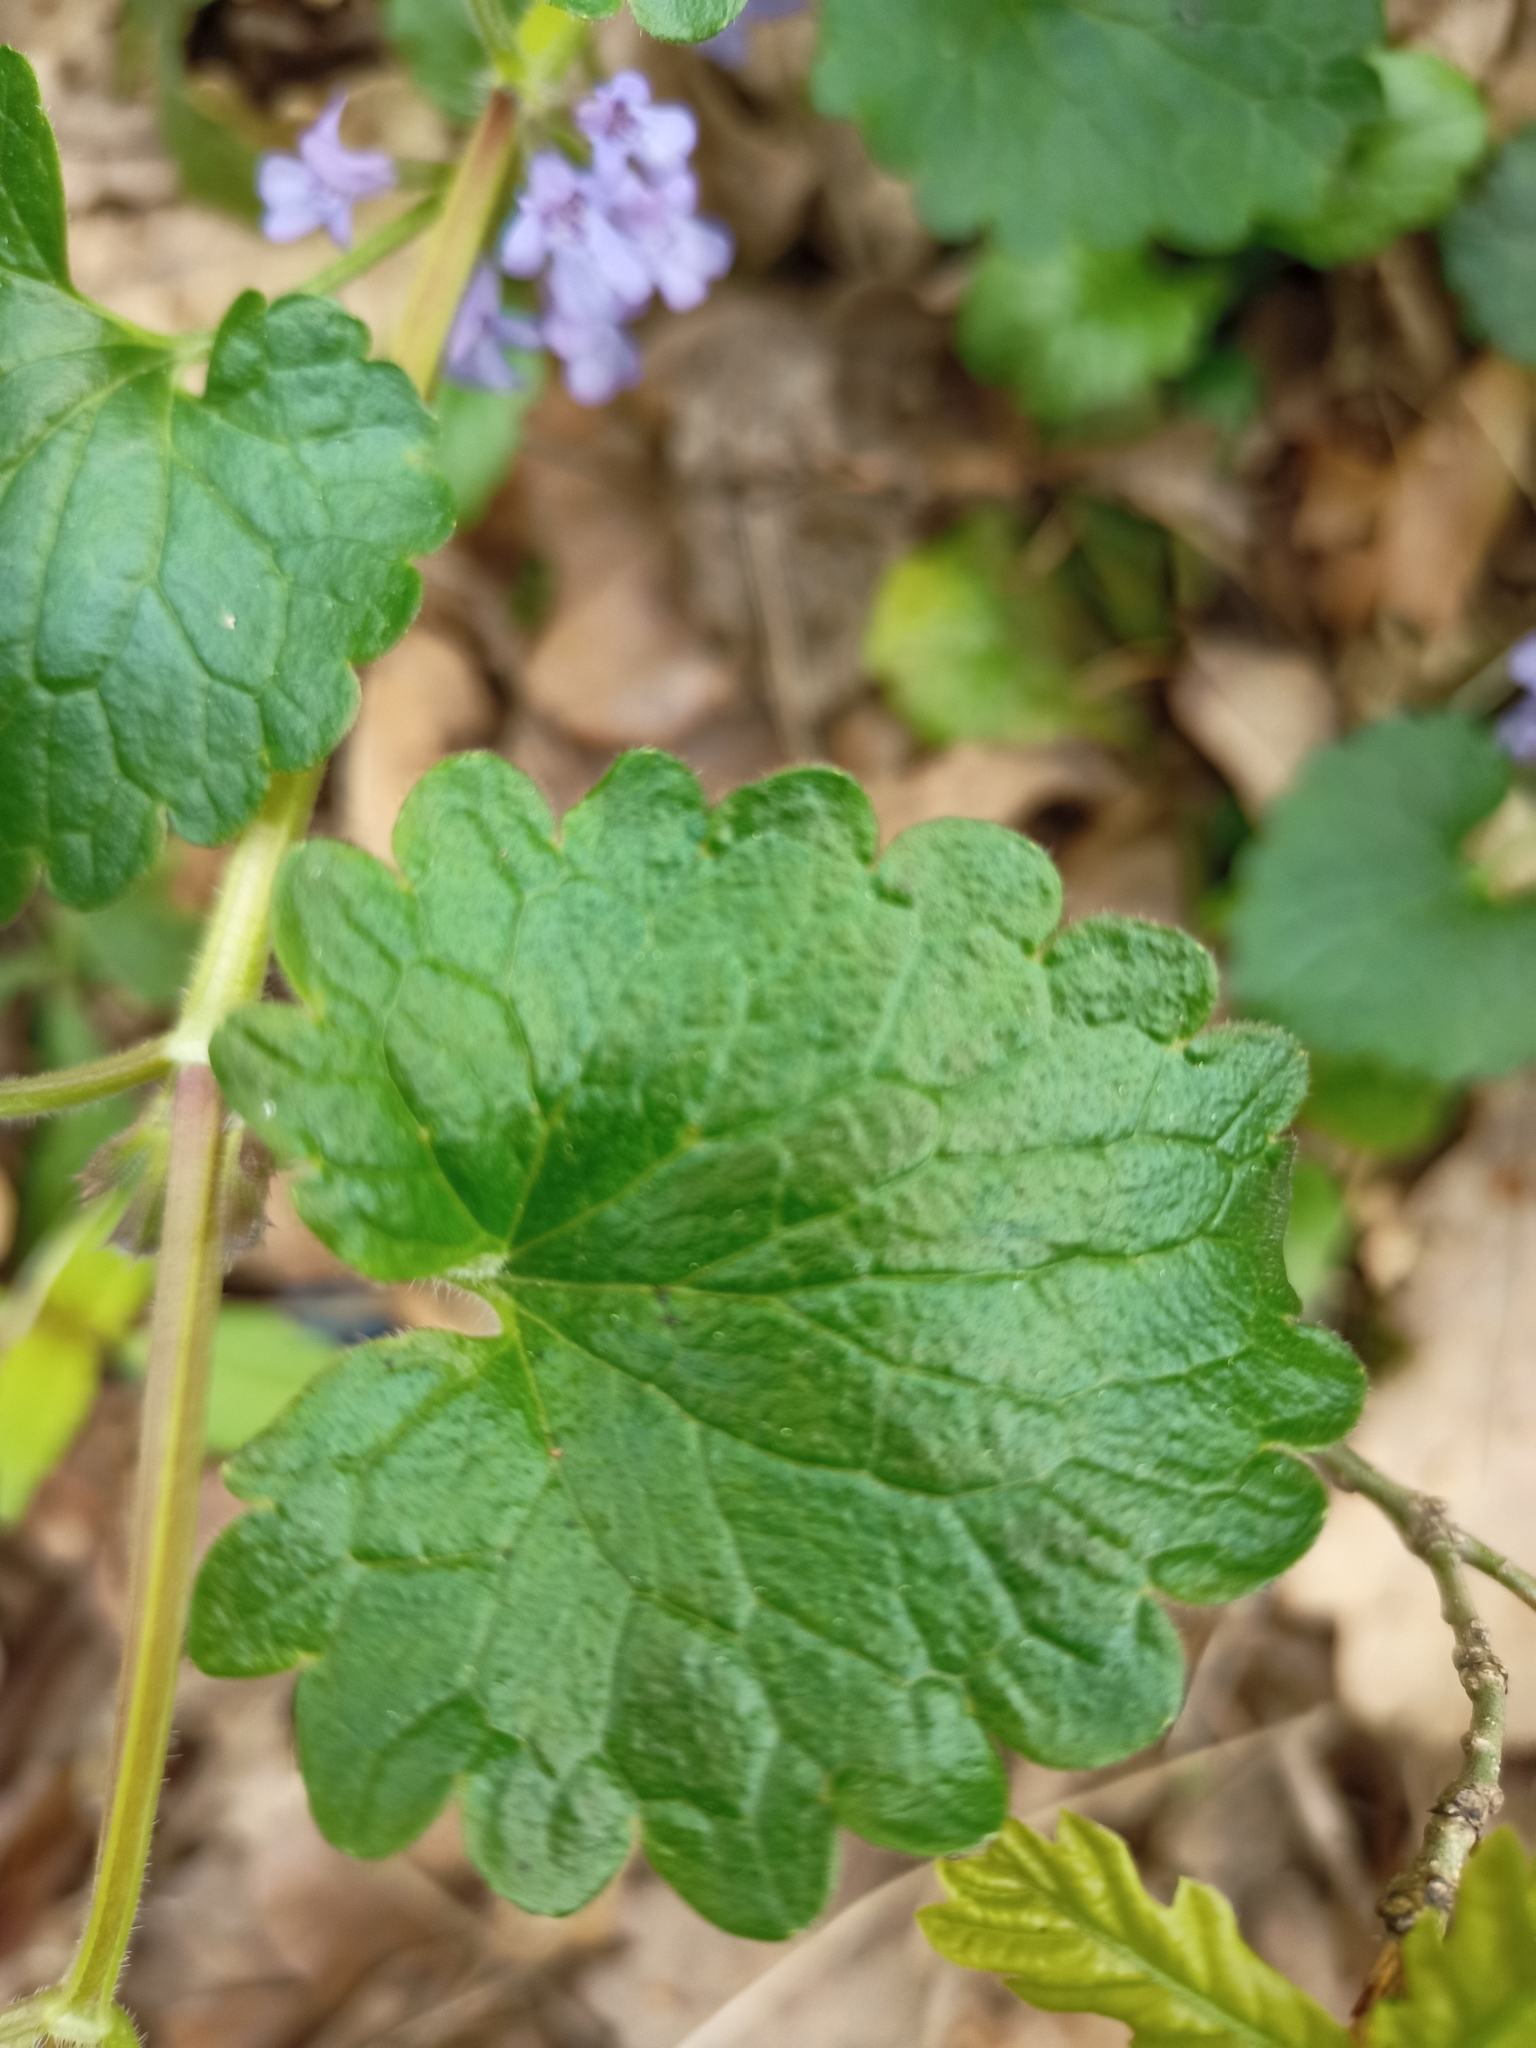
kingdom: Plantae
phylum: Tracheophyta
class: Magnoliopsida
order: Lamiales
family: Lamiaceae
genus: Glechoma
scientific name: Glechoma hederacea
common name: Ground ivy
